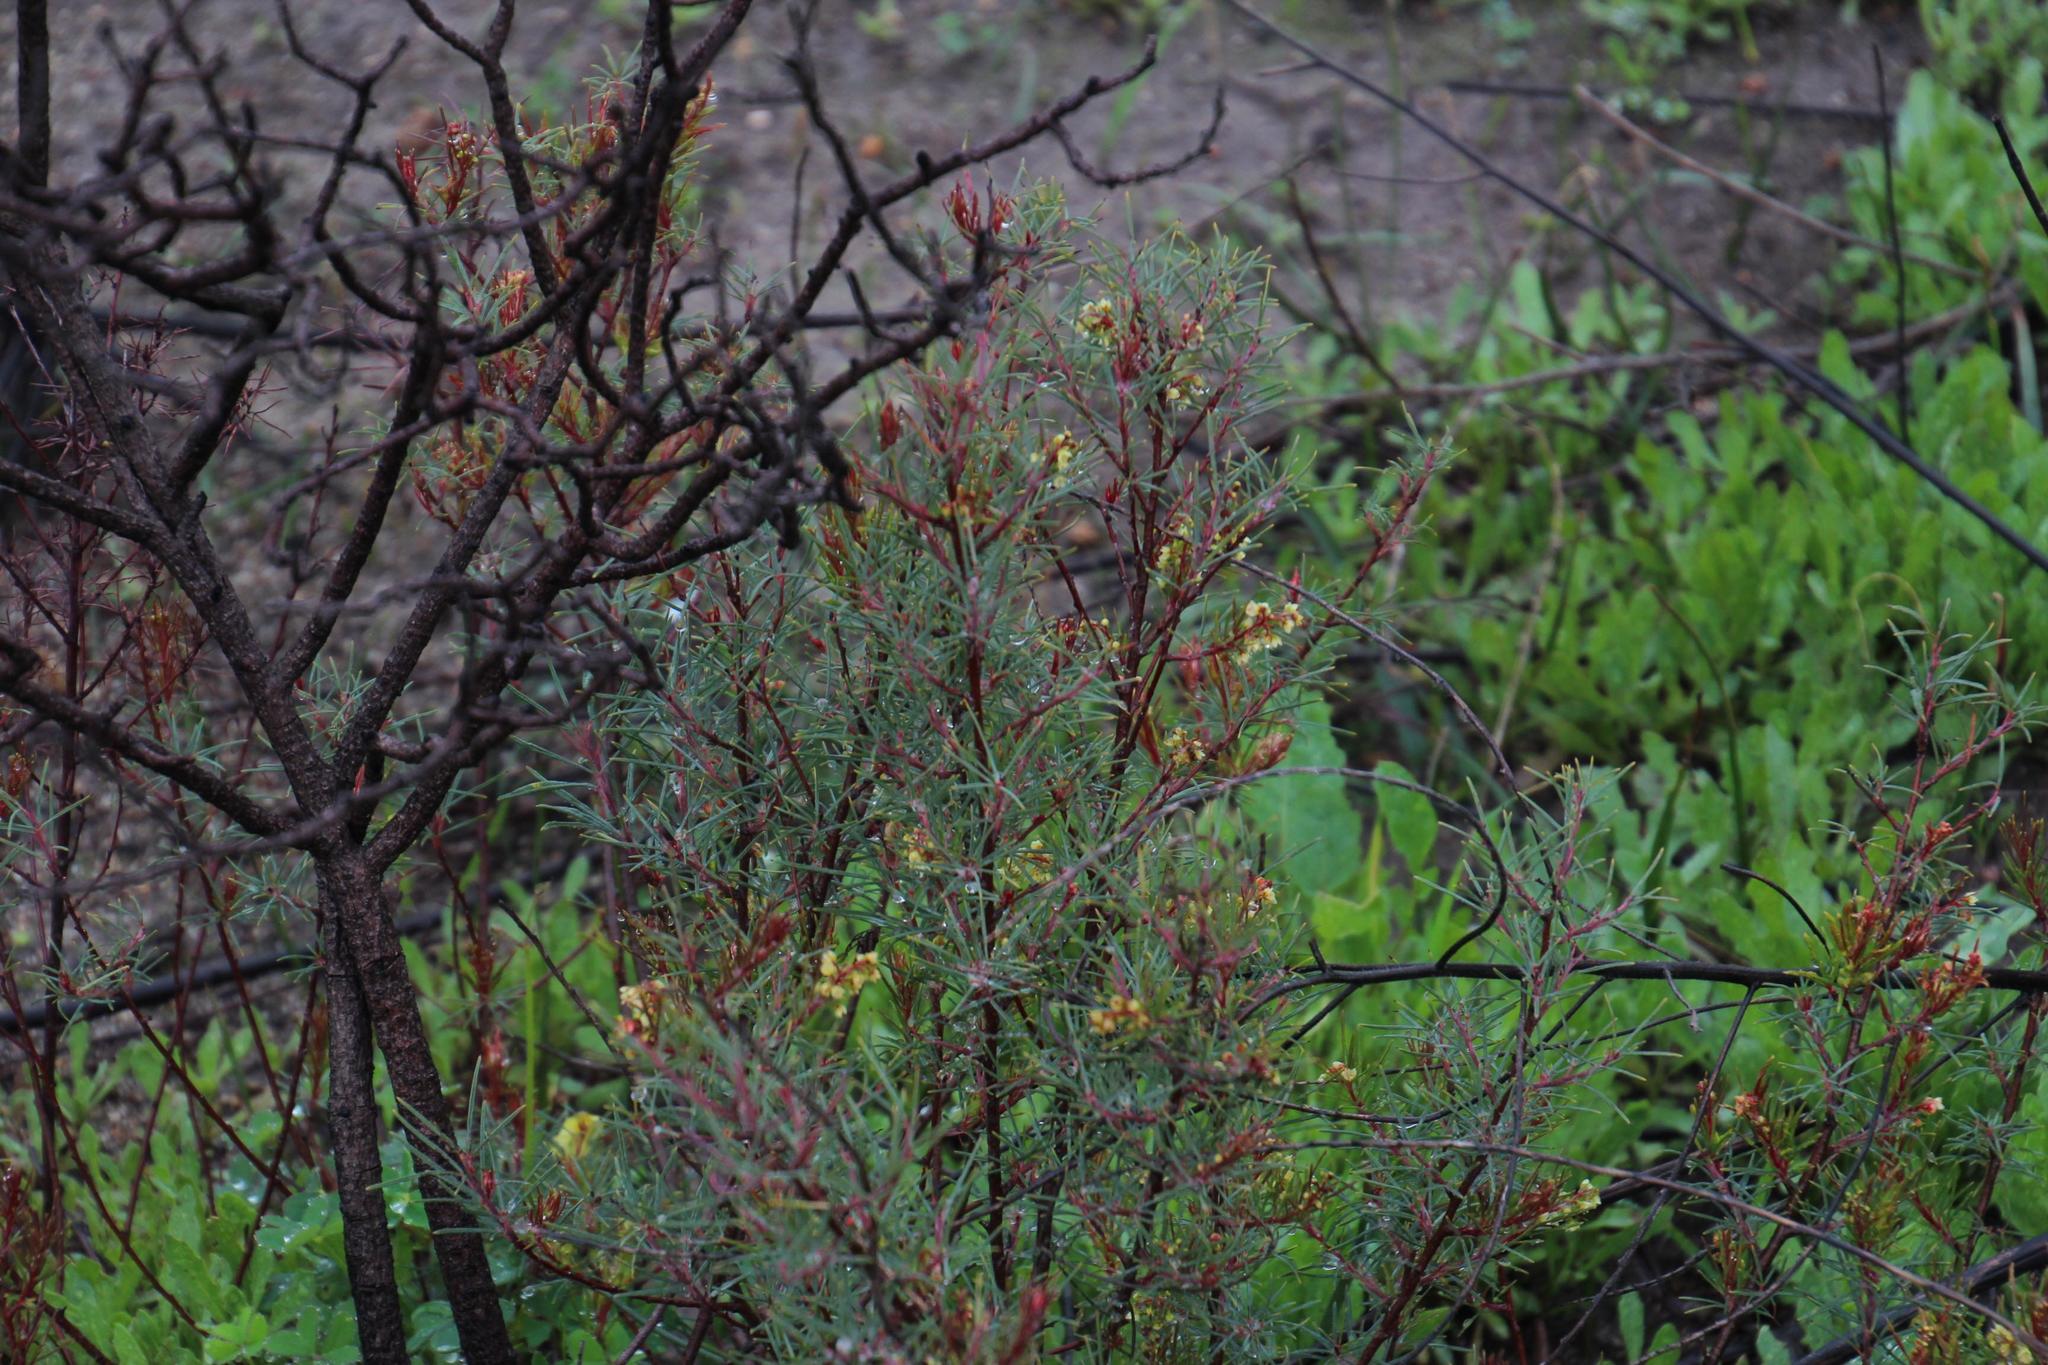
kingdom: Plantae
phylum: Tracheophyta
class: Magnoliopsida
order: Sapindales
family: Anacardiaceae
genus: Searsia
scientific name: Searsia rosmarinifolia
